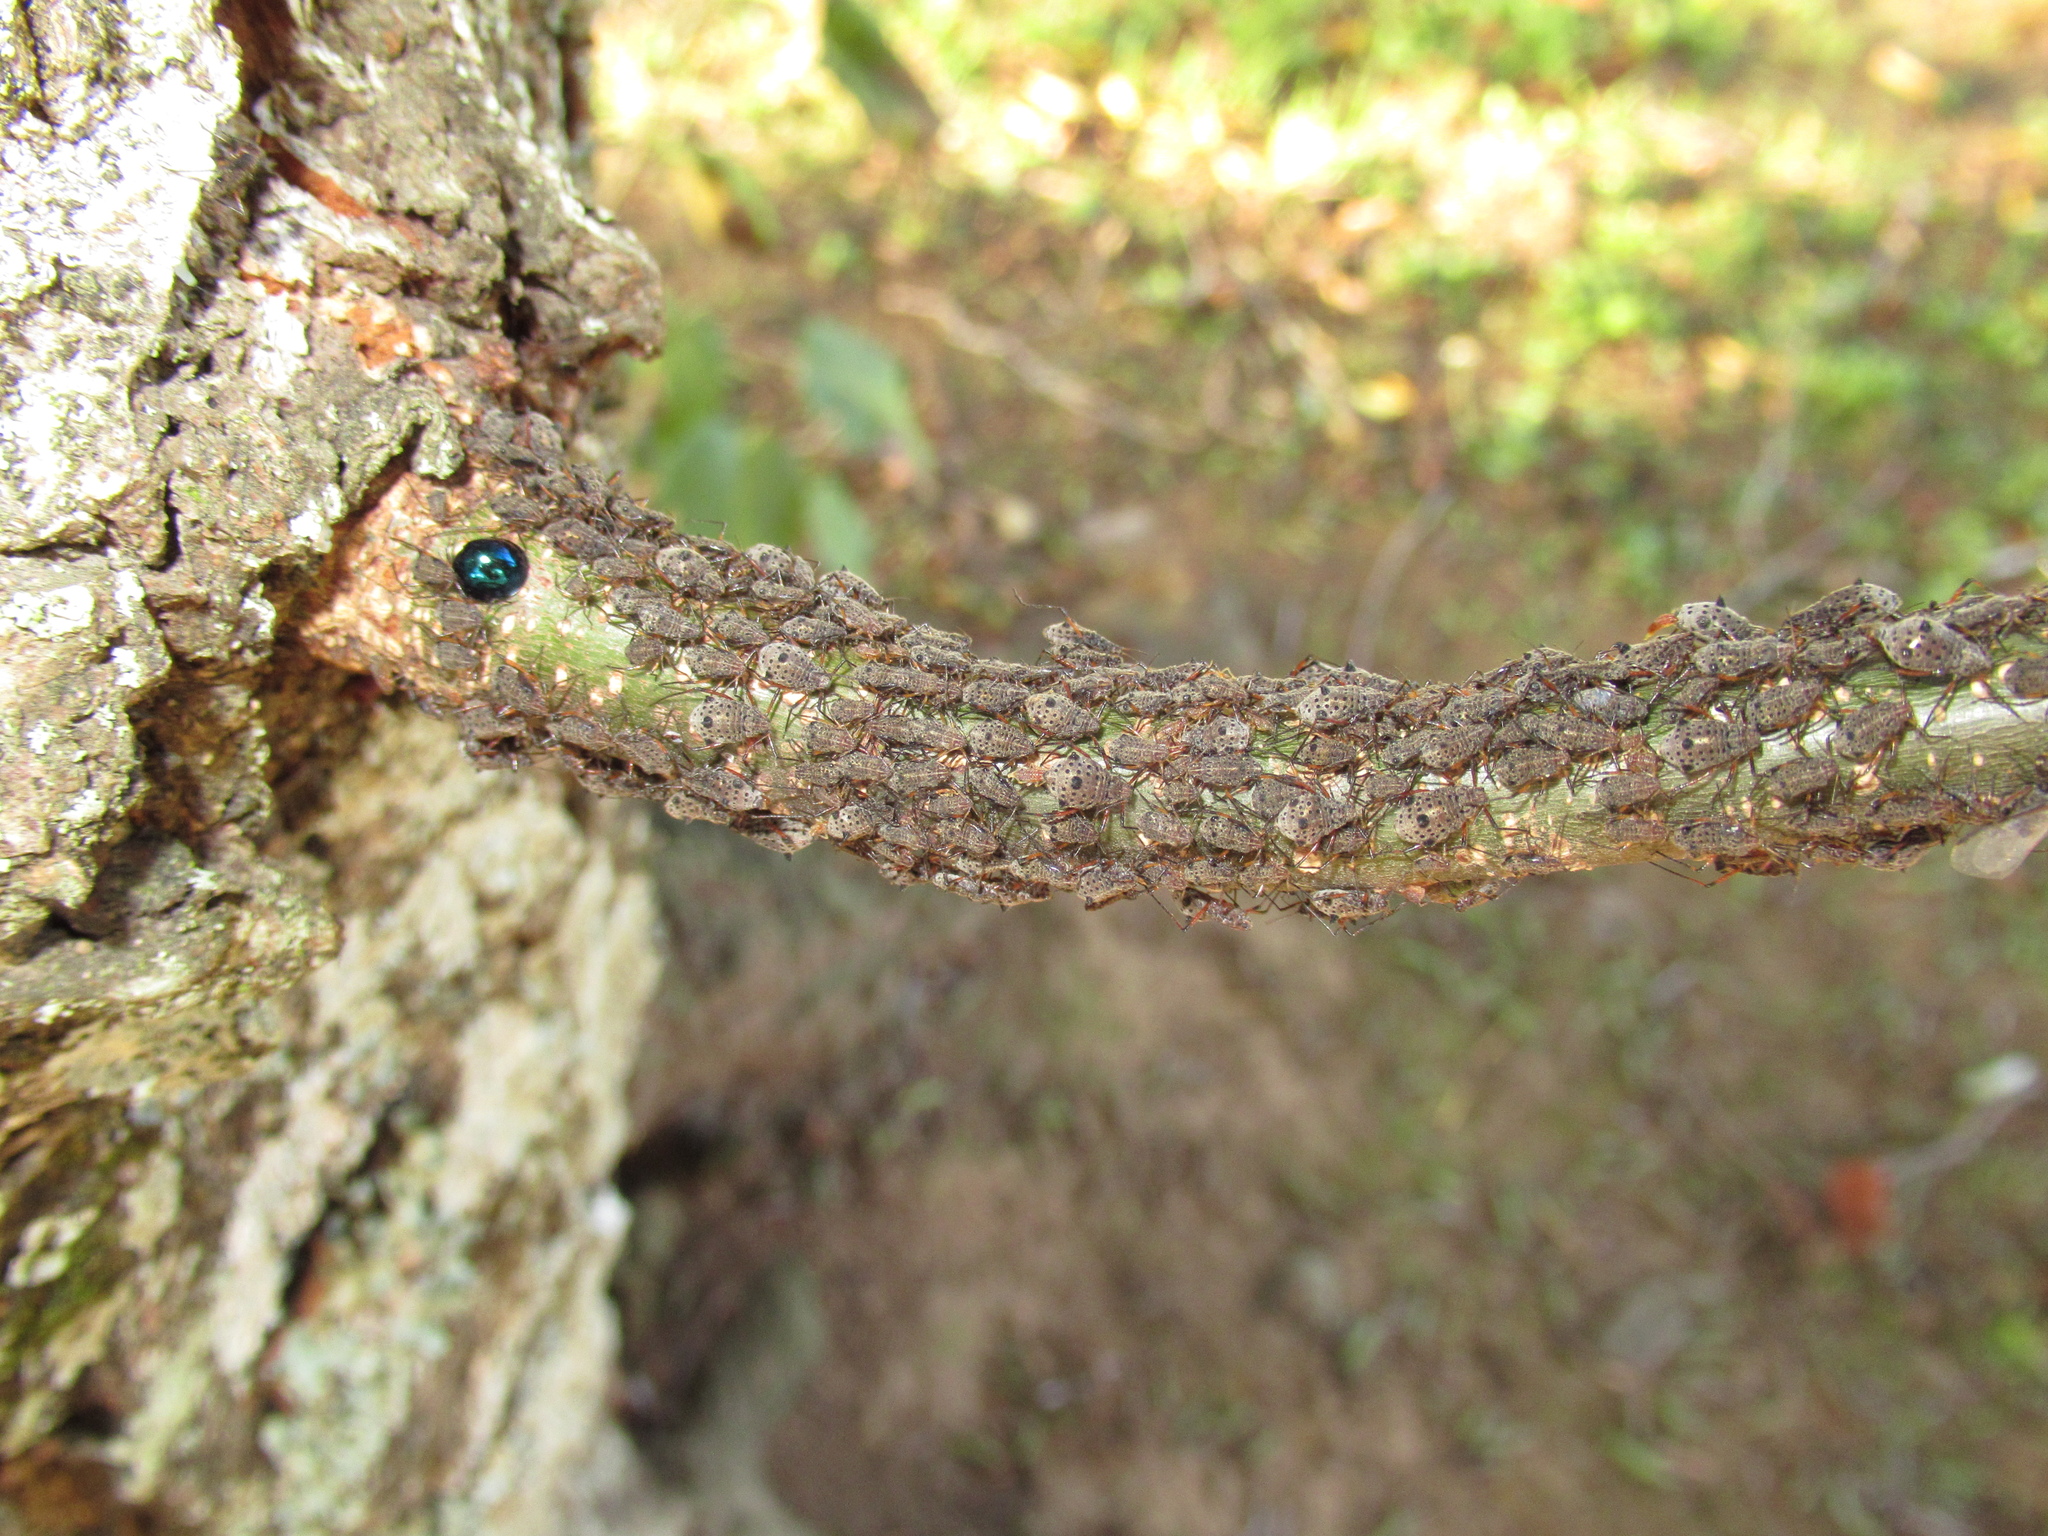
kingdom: Animalia
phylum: Arthropoda
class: Insecta
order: Hemiptera
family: Aphididae
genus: Tuberolachnus
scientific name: Tuberolachnus salignus
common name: Giant willow aphid
